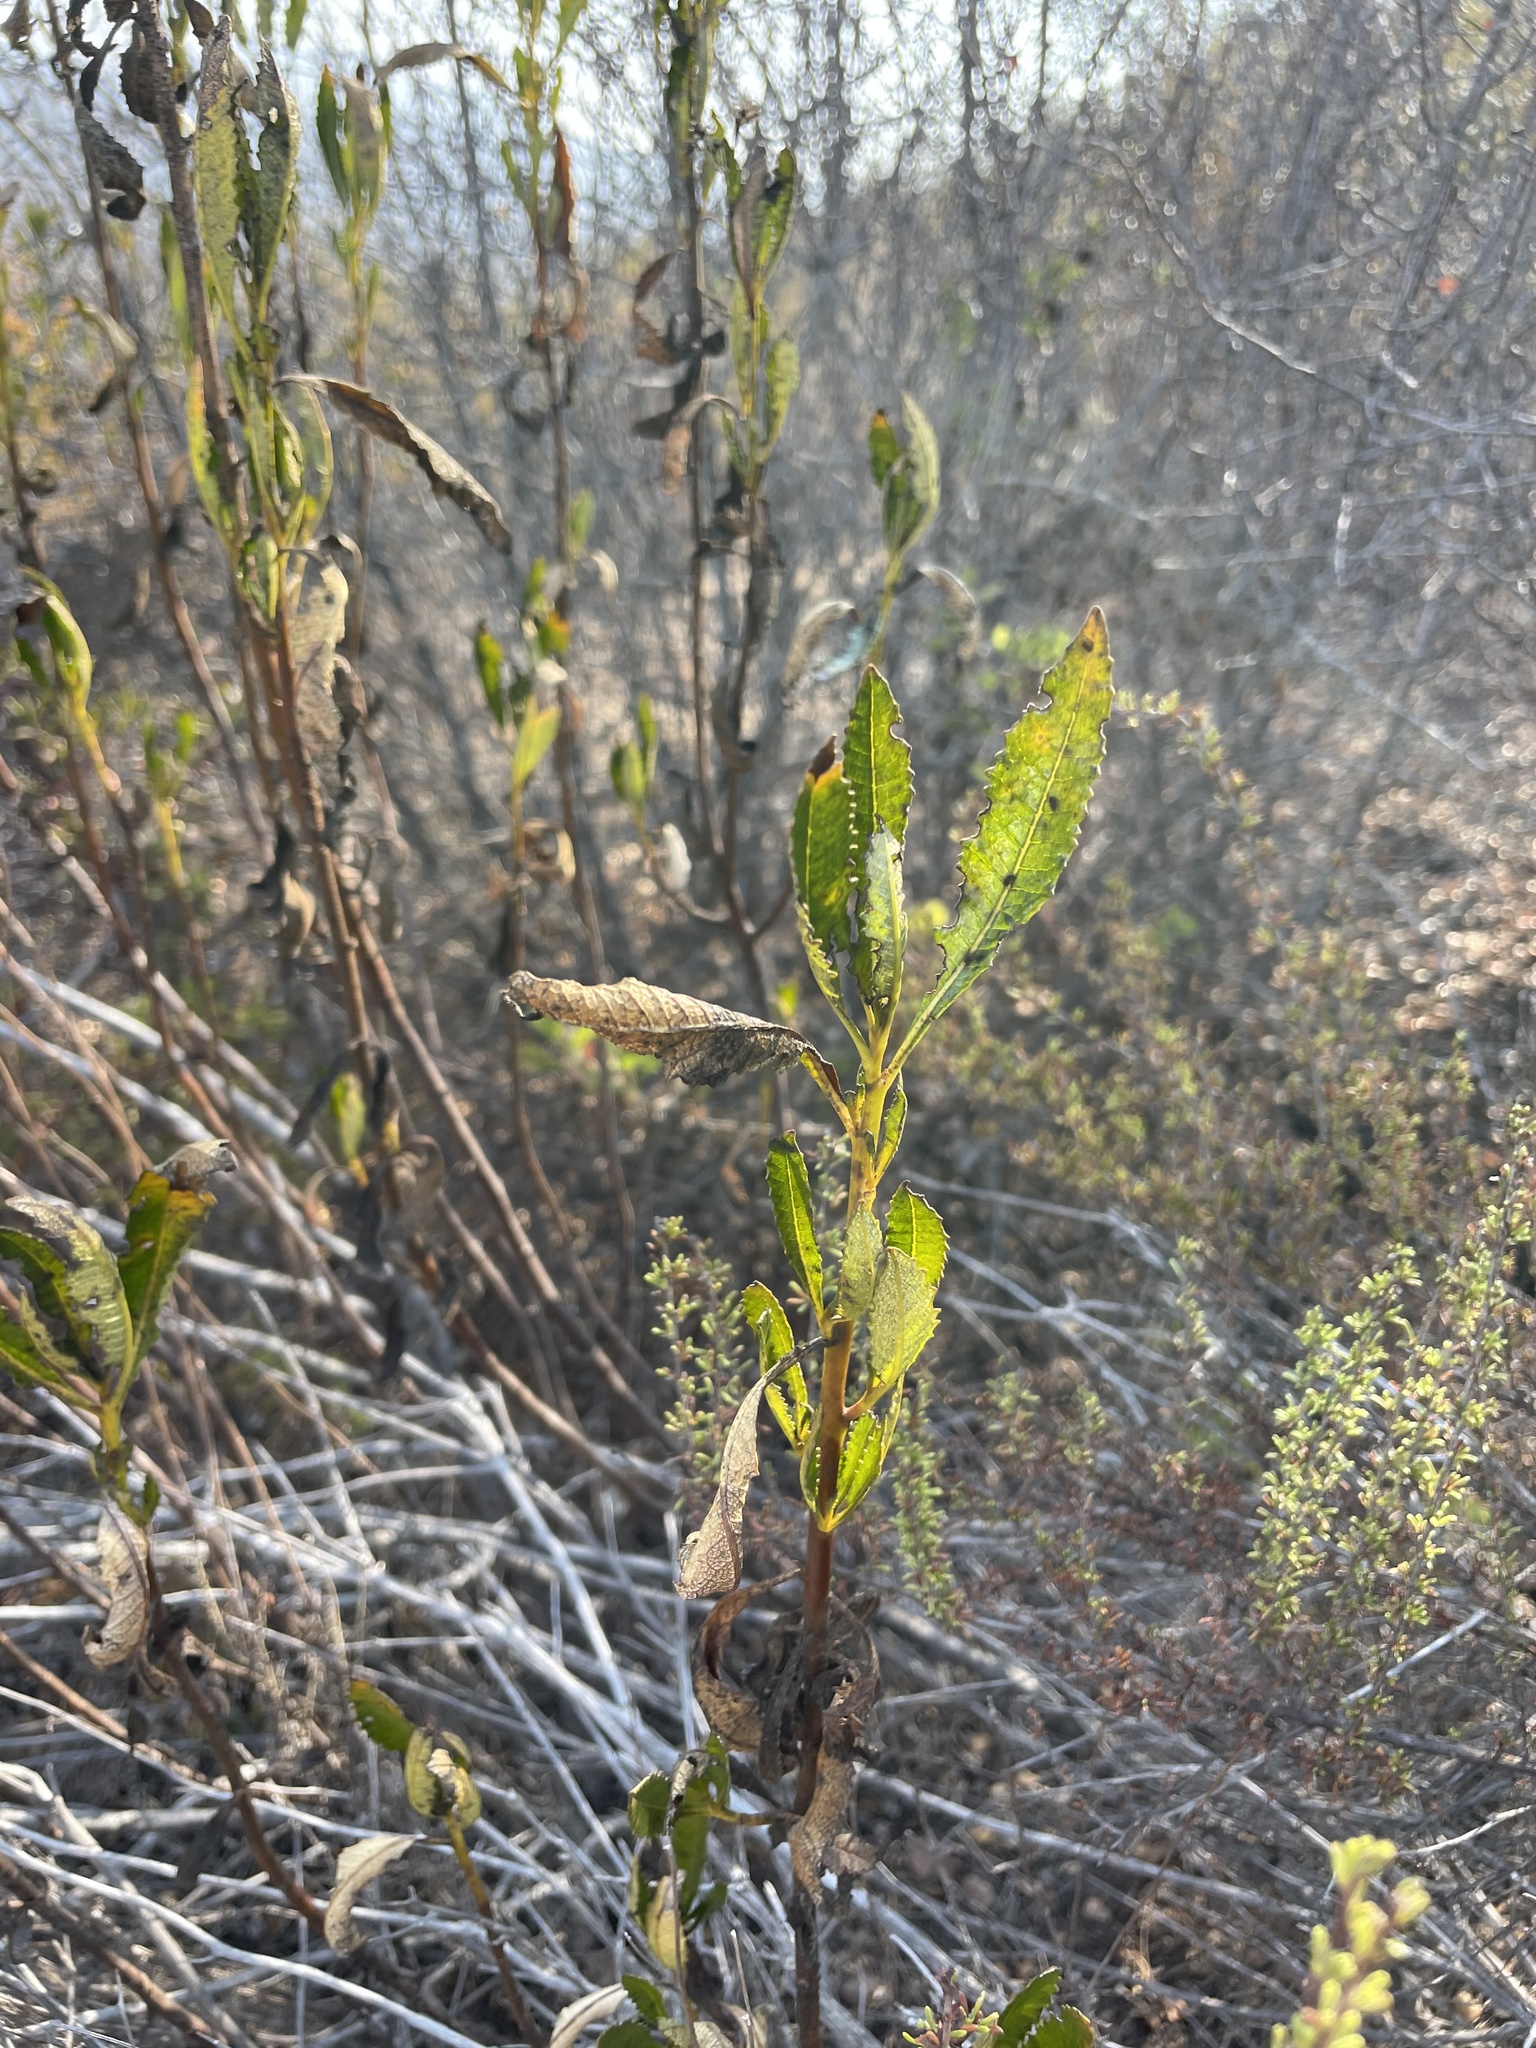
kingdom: Plantae
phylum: Tracheophyta
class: Magnoliopsida
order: Boraginales
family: Namaceae
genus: Eriodictyon
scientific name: Eriodictyon trichocalyx
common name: Hairy yerba-santa
